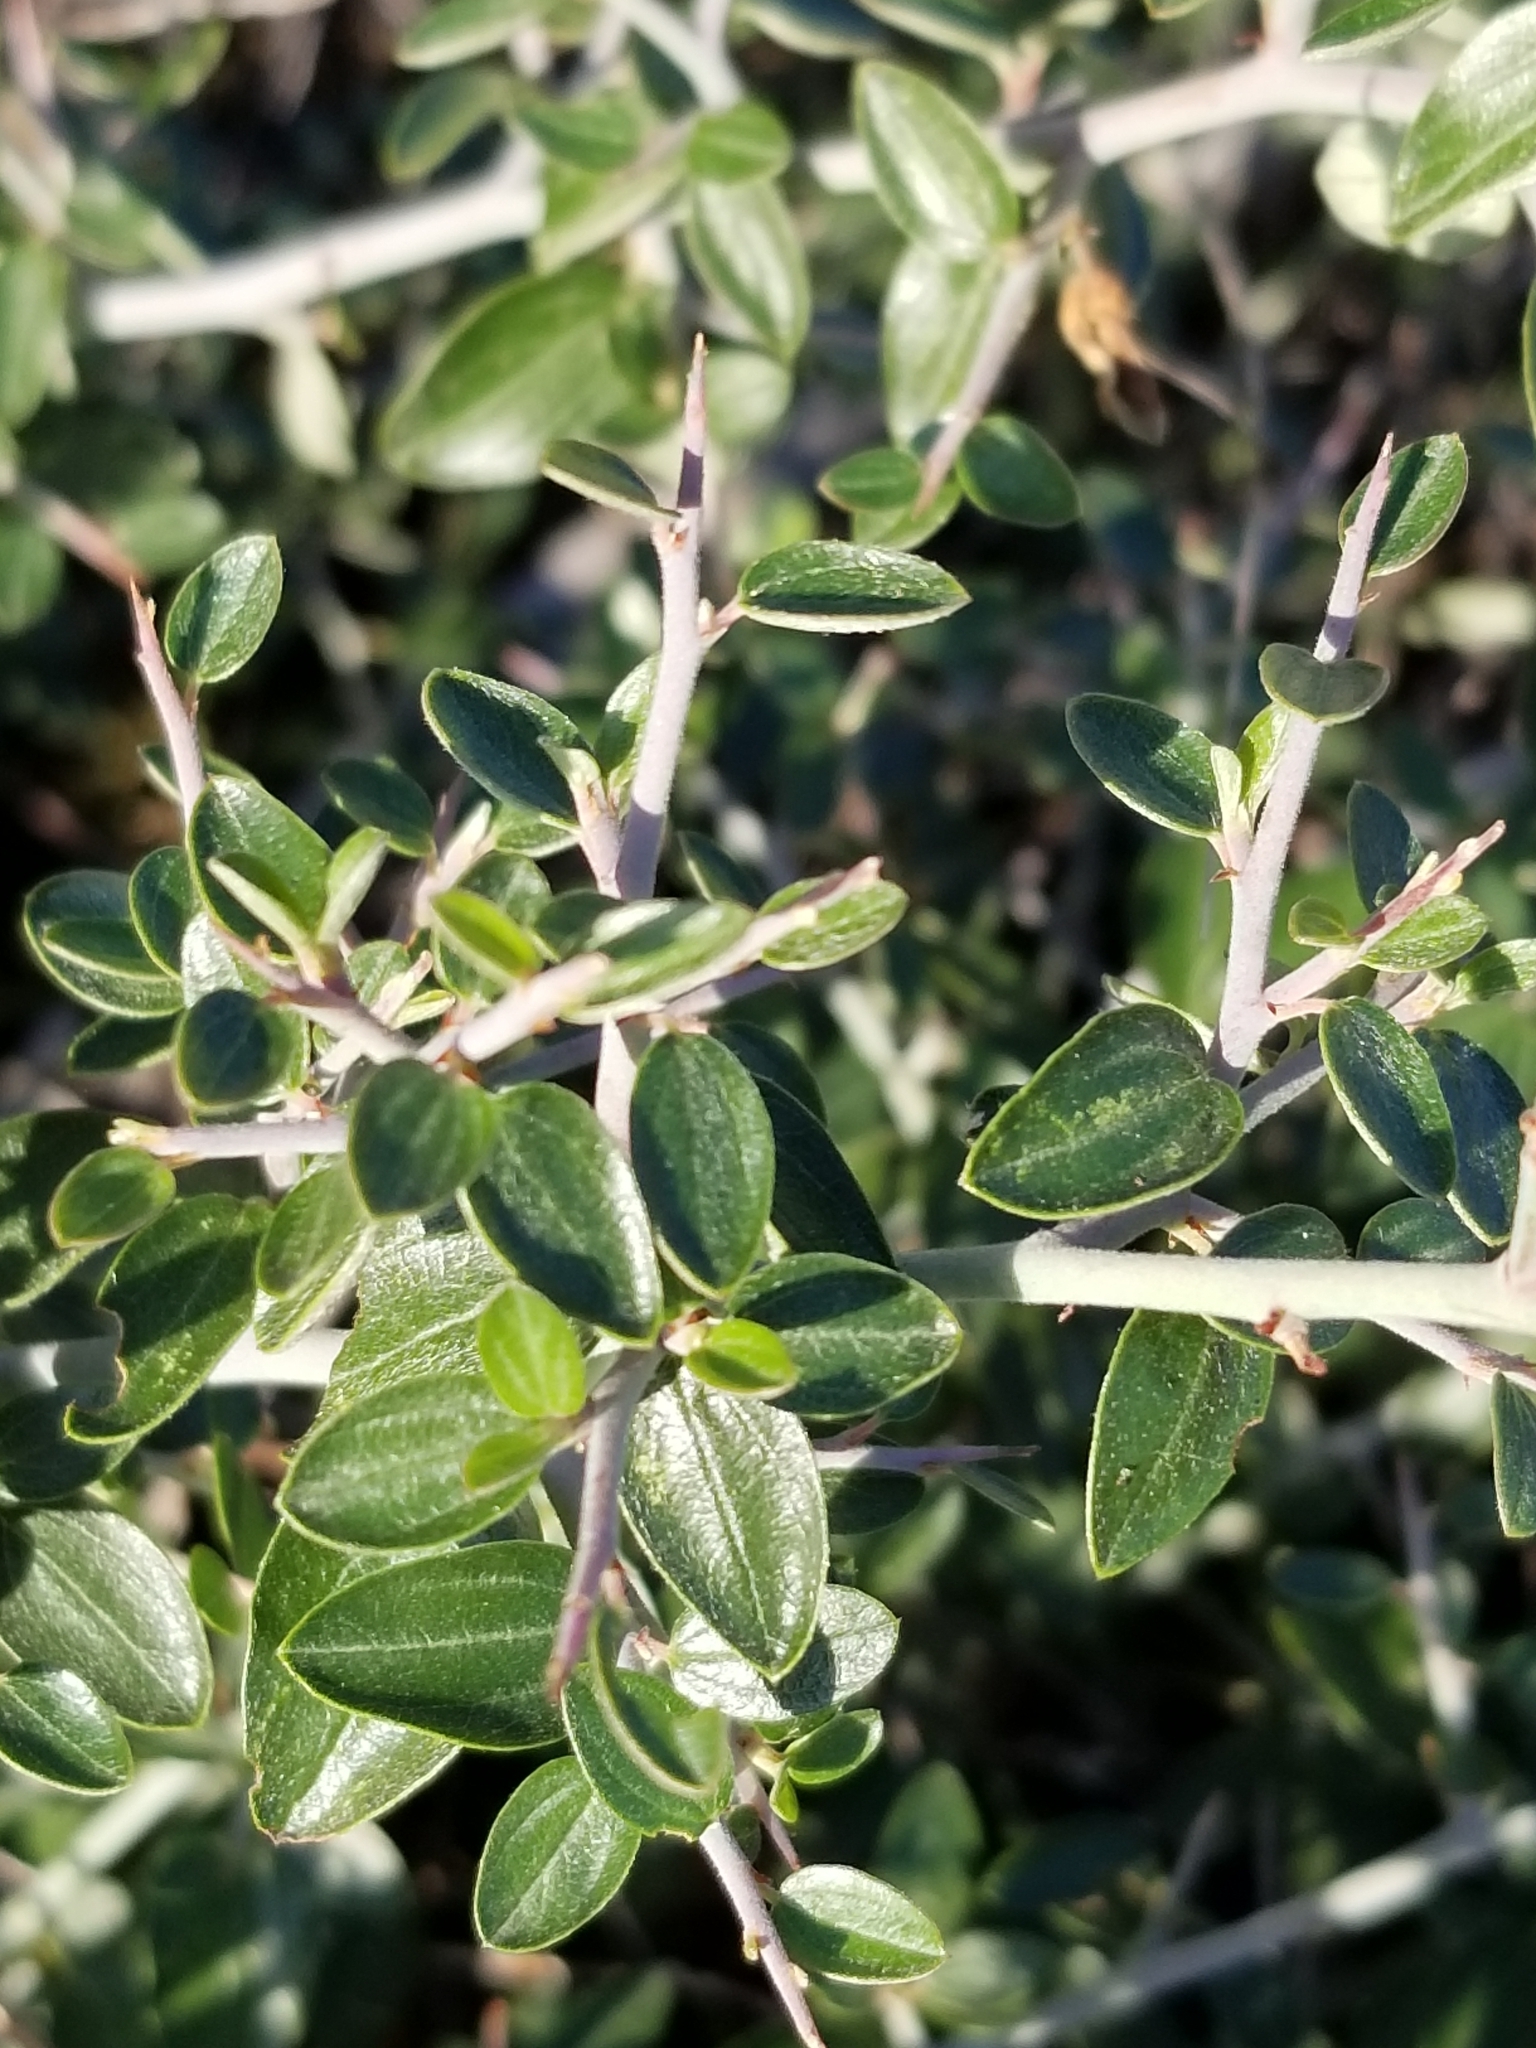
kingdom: Plantae
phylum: Tracheophyta
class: Magnoliopsida
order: Rosales
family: Rhamnaceae
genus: Ceanothus
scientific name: Ceanothus fendleri
